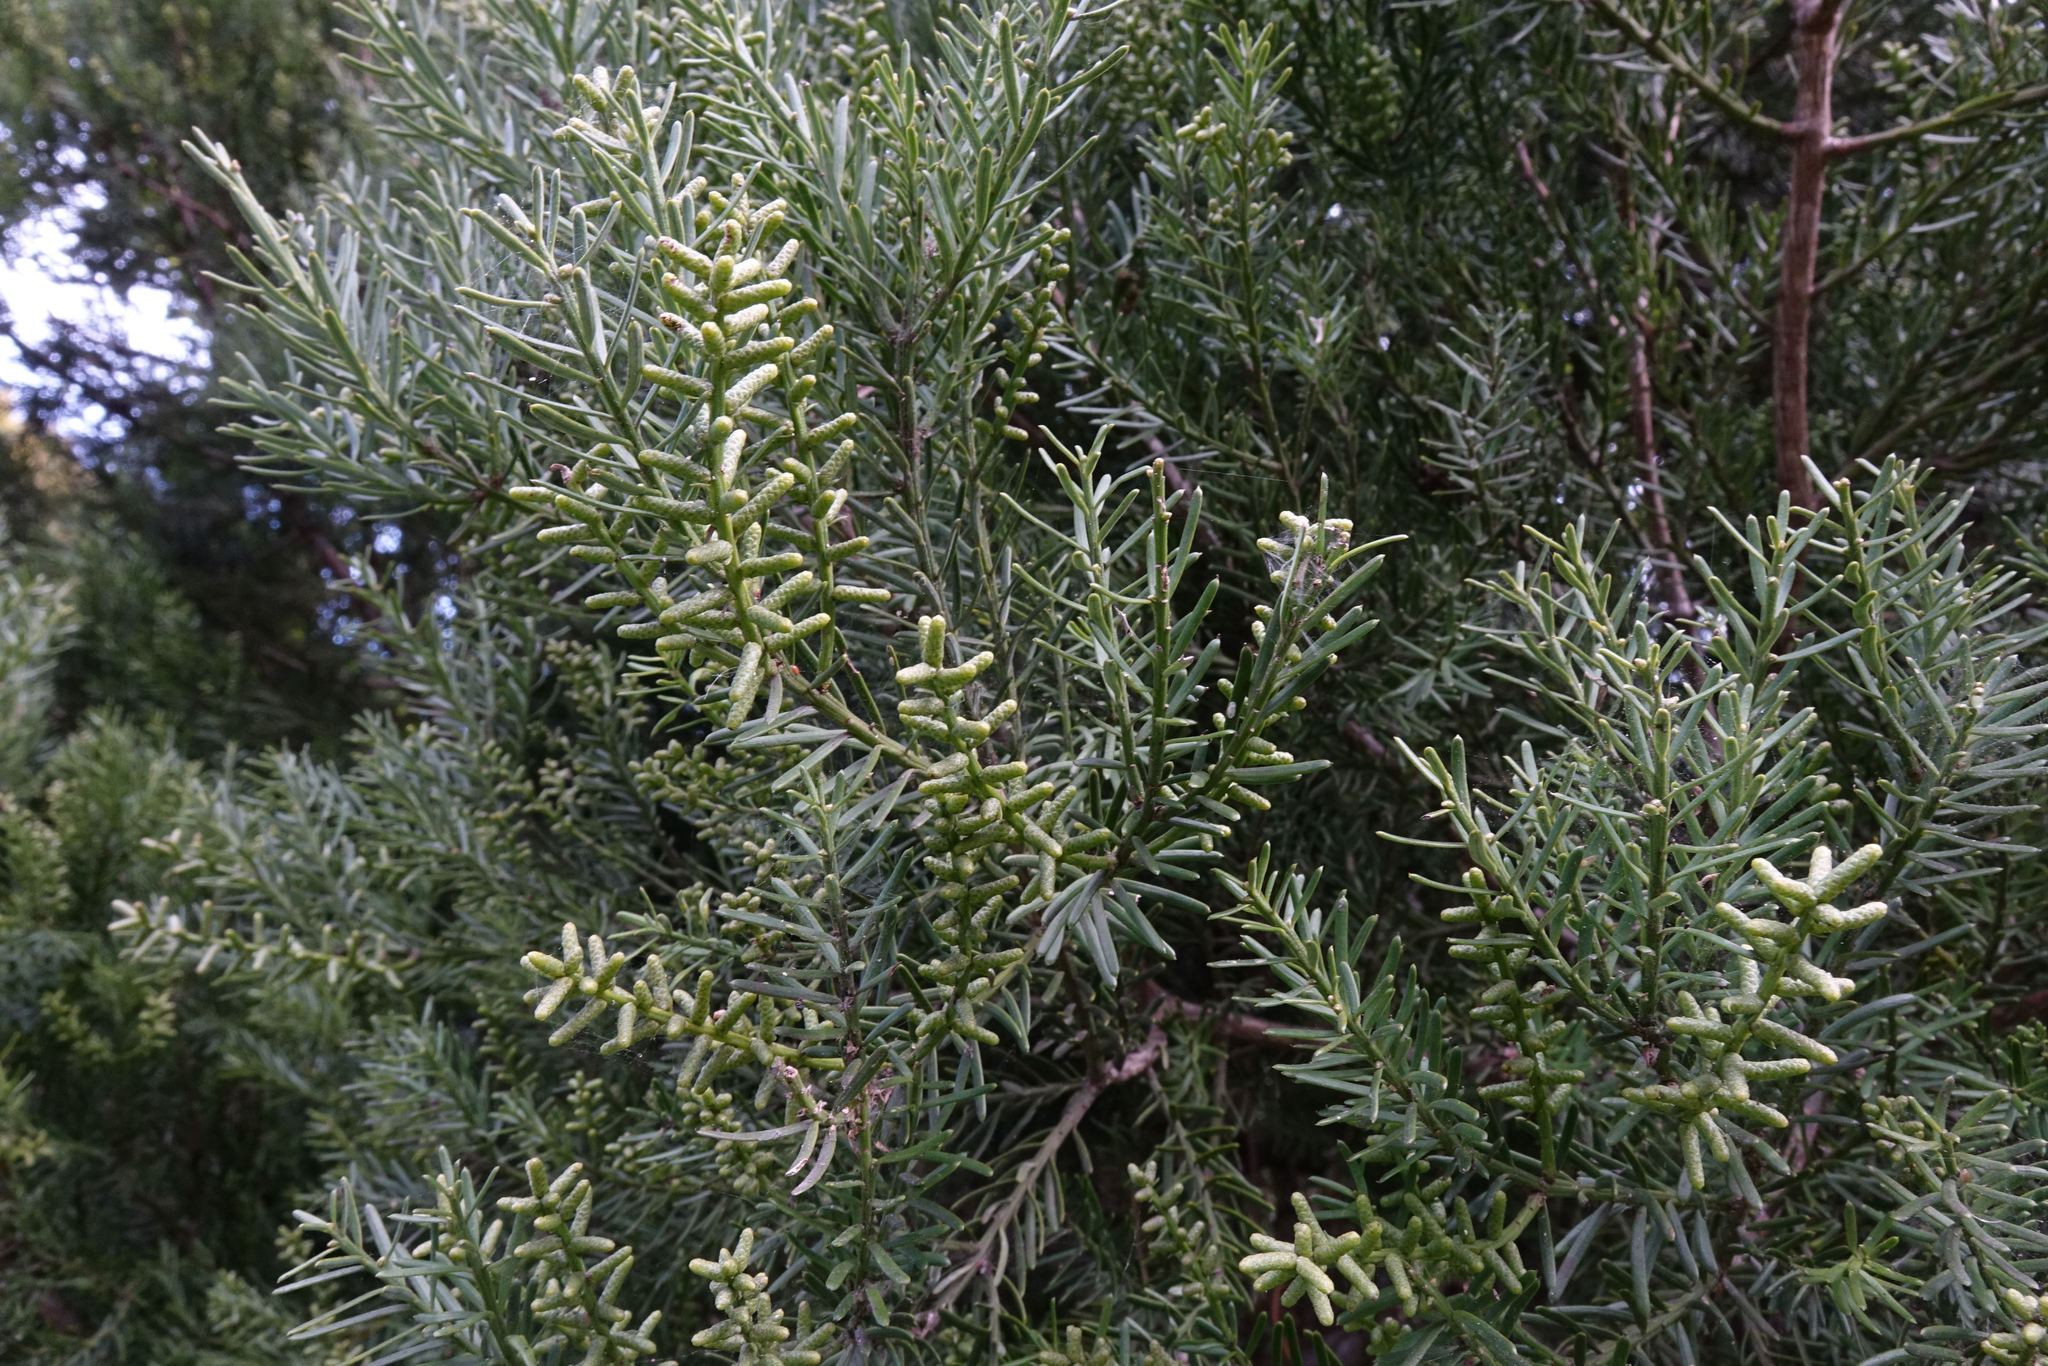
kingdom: Plantae
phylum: Tracheophyta
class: Pinopsida
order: Pinales
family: Podocarpaceae
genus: Prumnopitys
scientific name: Prumnopitys taxifolia
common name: Matai
